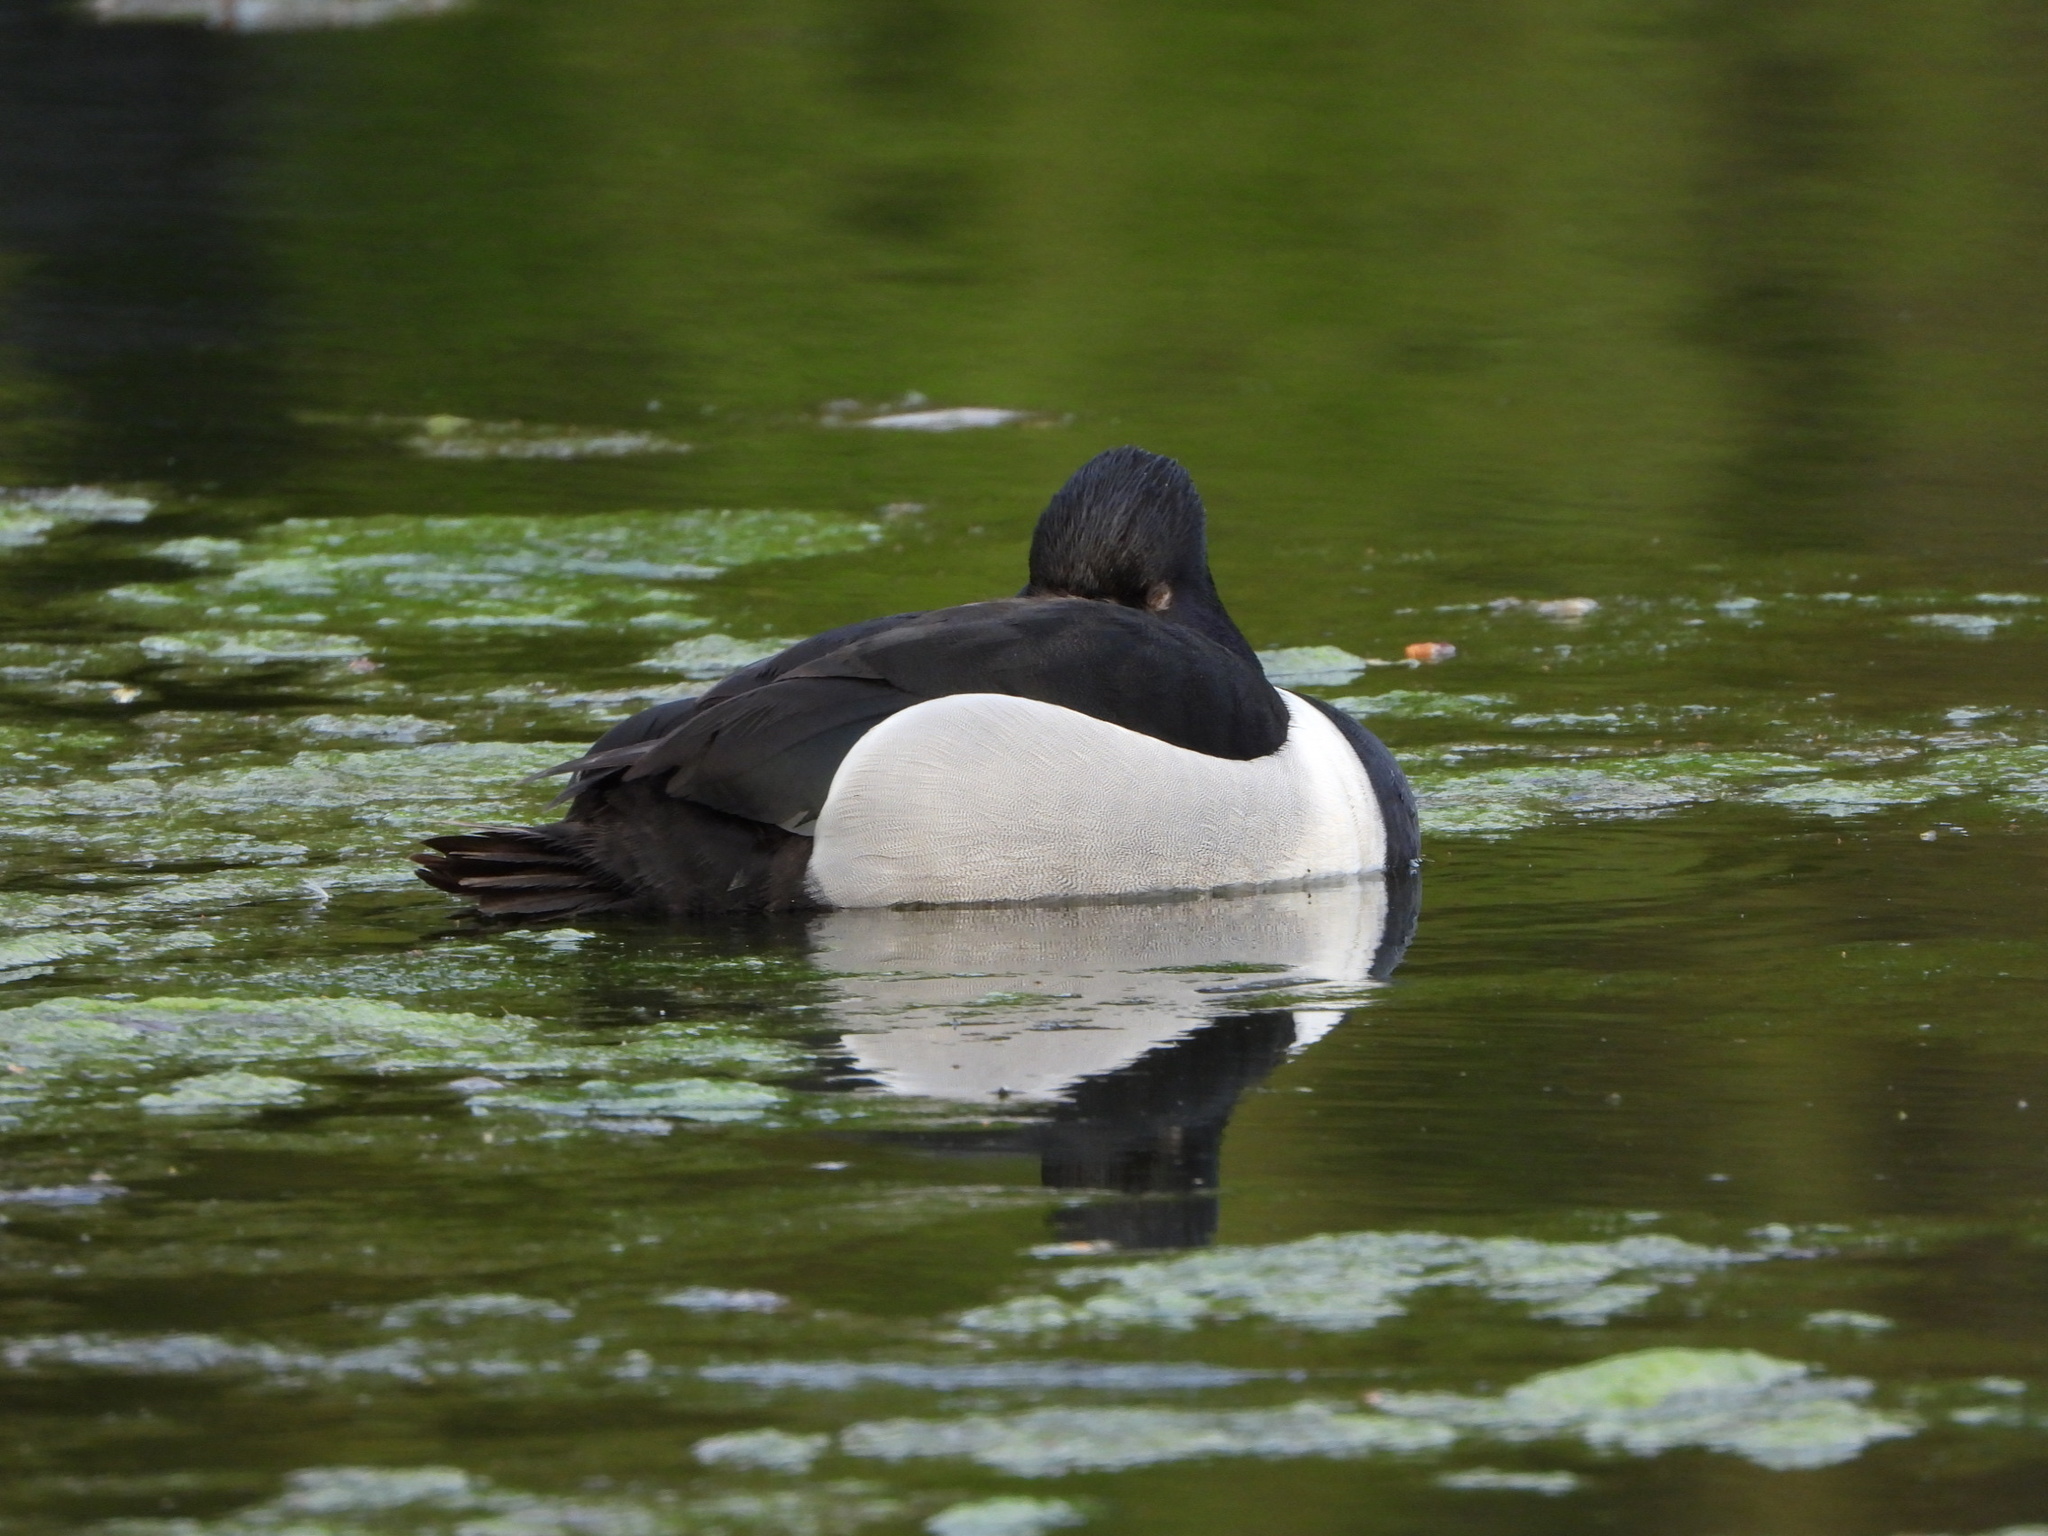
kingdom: Animalia
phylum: Chordata
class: Aves
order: Anseriformes
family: Anatidae
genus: Aythya
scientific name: Aythya collaris
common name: Ring-necked duck
